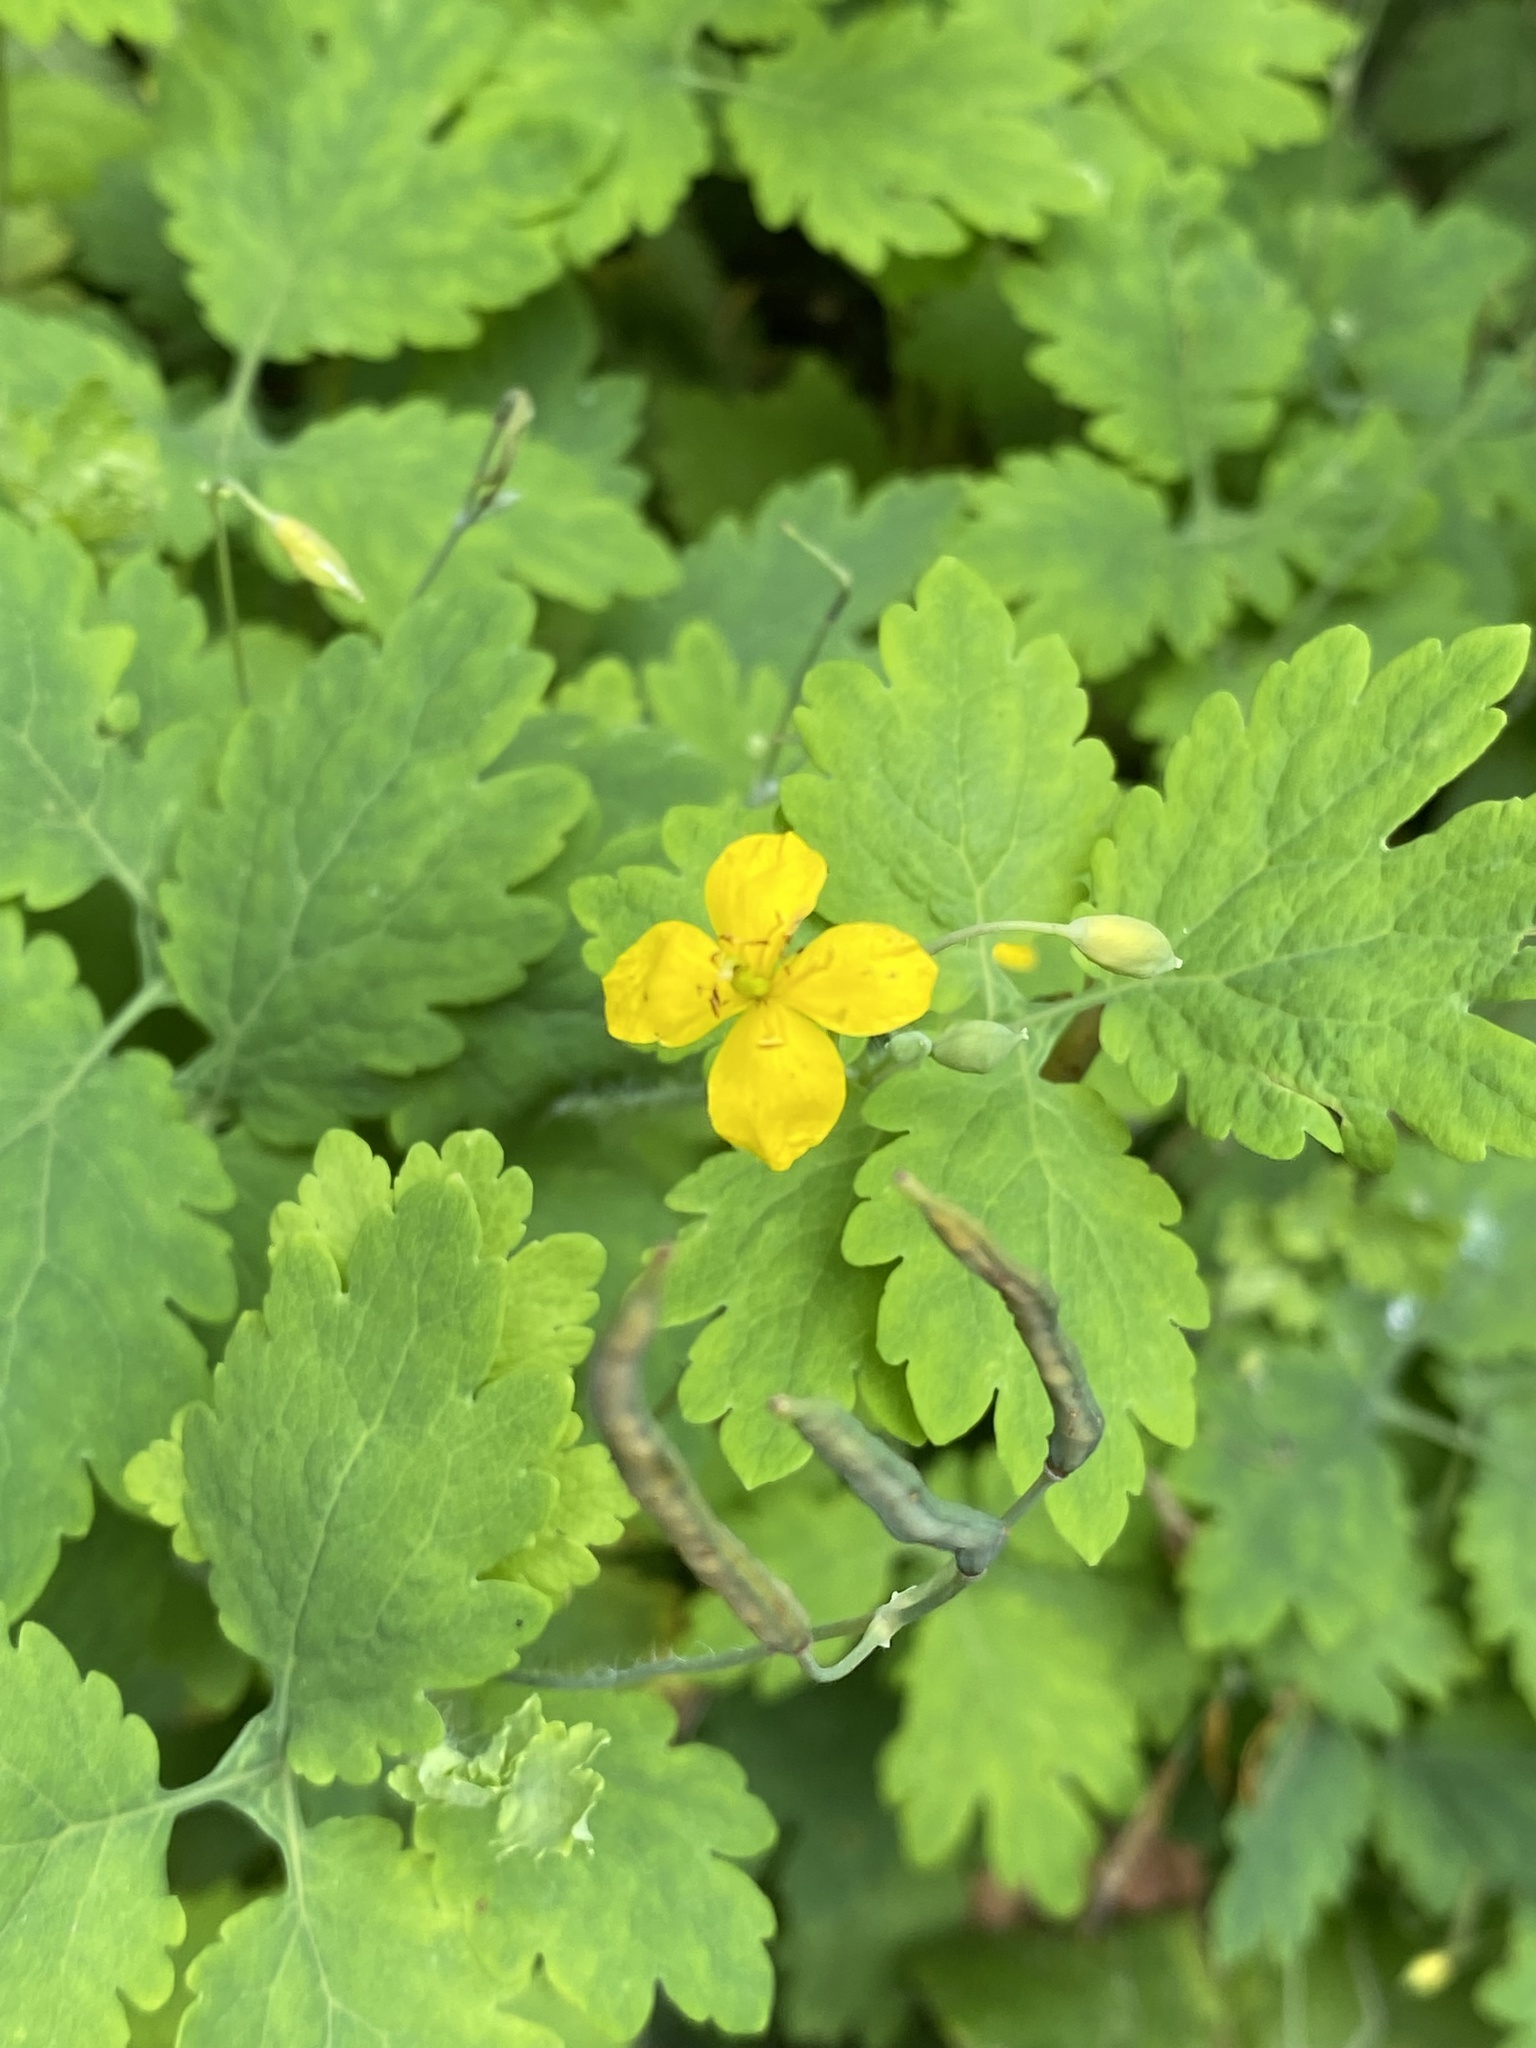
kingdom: Plantae
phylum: Tracheophyta
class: Magnoliopsida
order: Ranunculales
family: Papaveraceae
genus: Chelidonium
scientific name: Chelidonium majus
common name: Greater celandine
